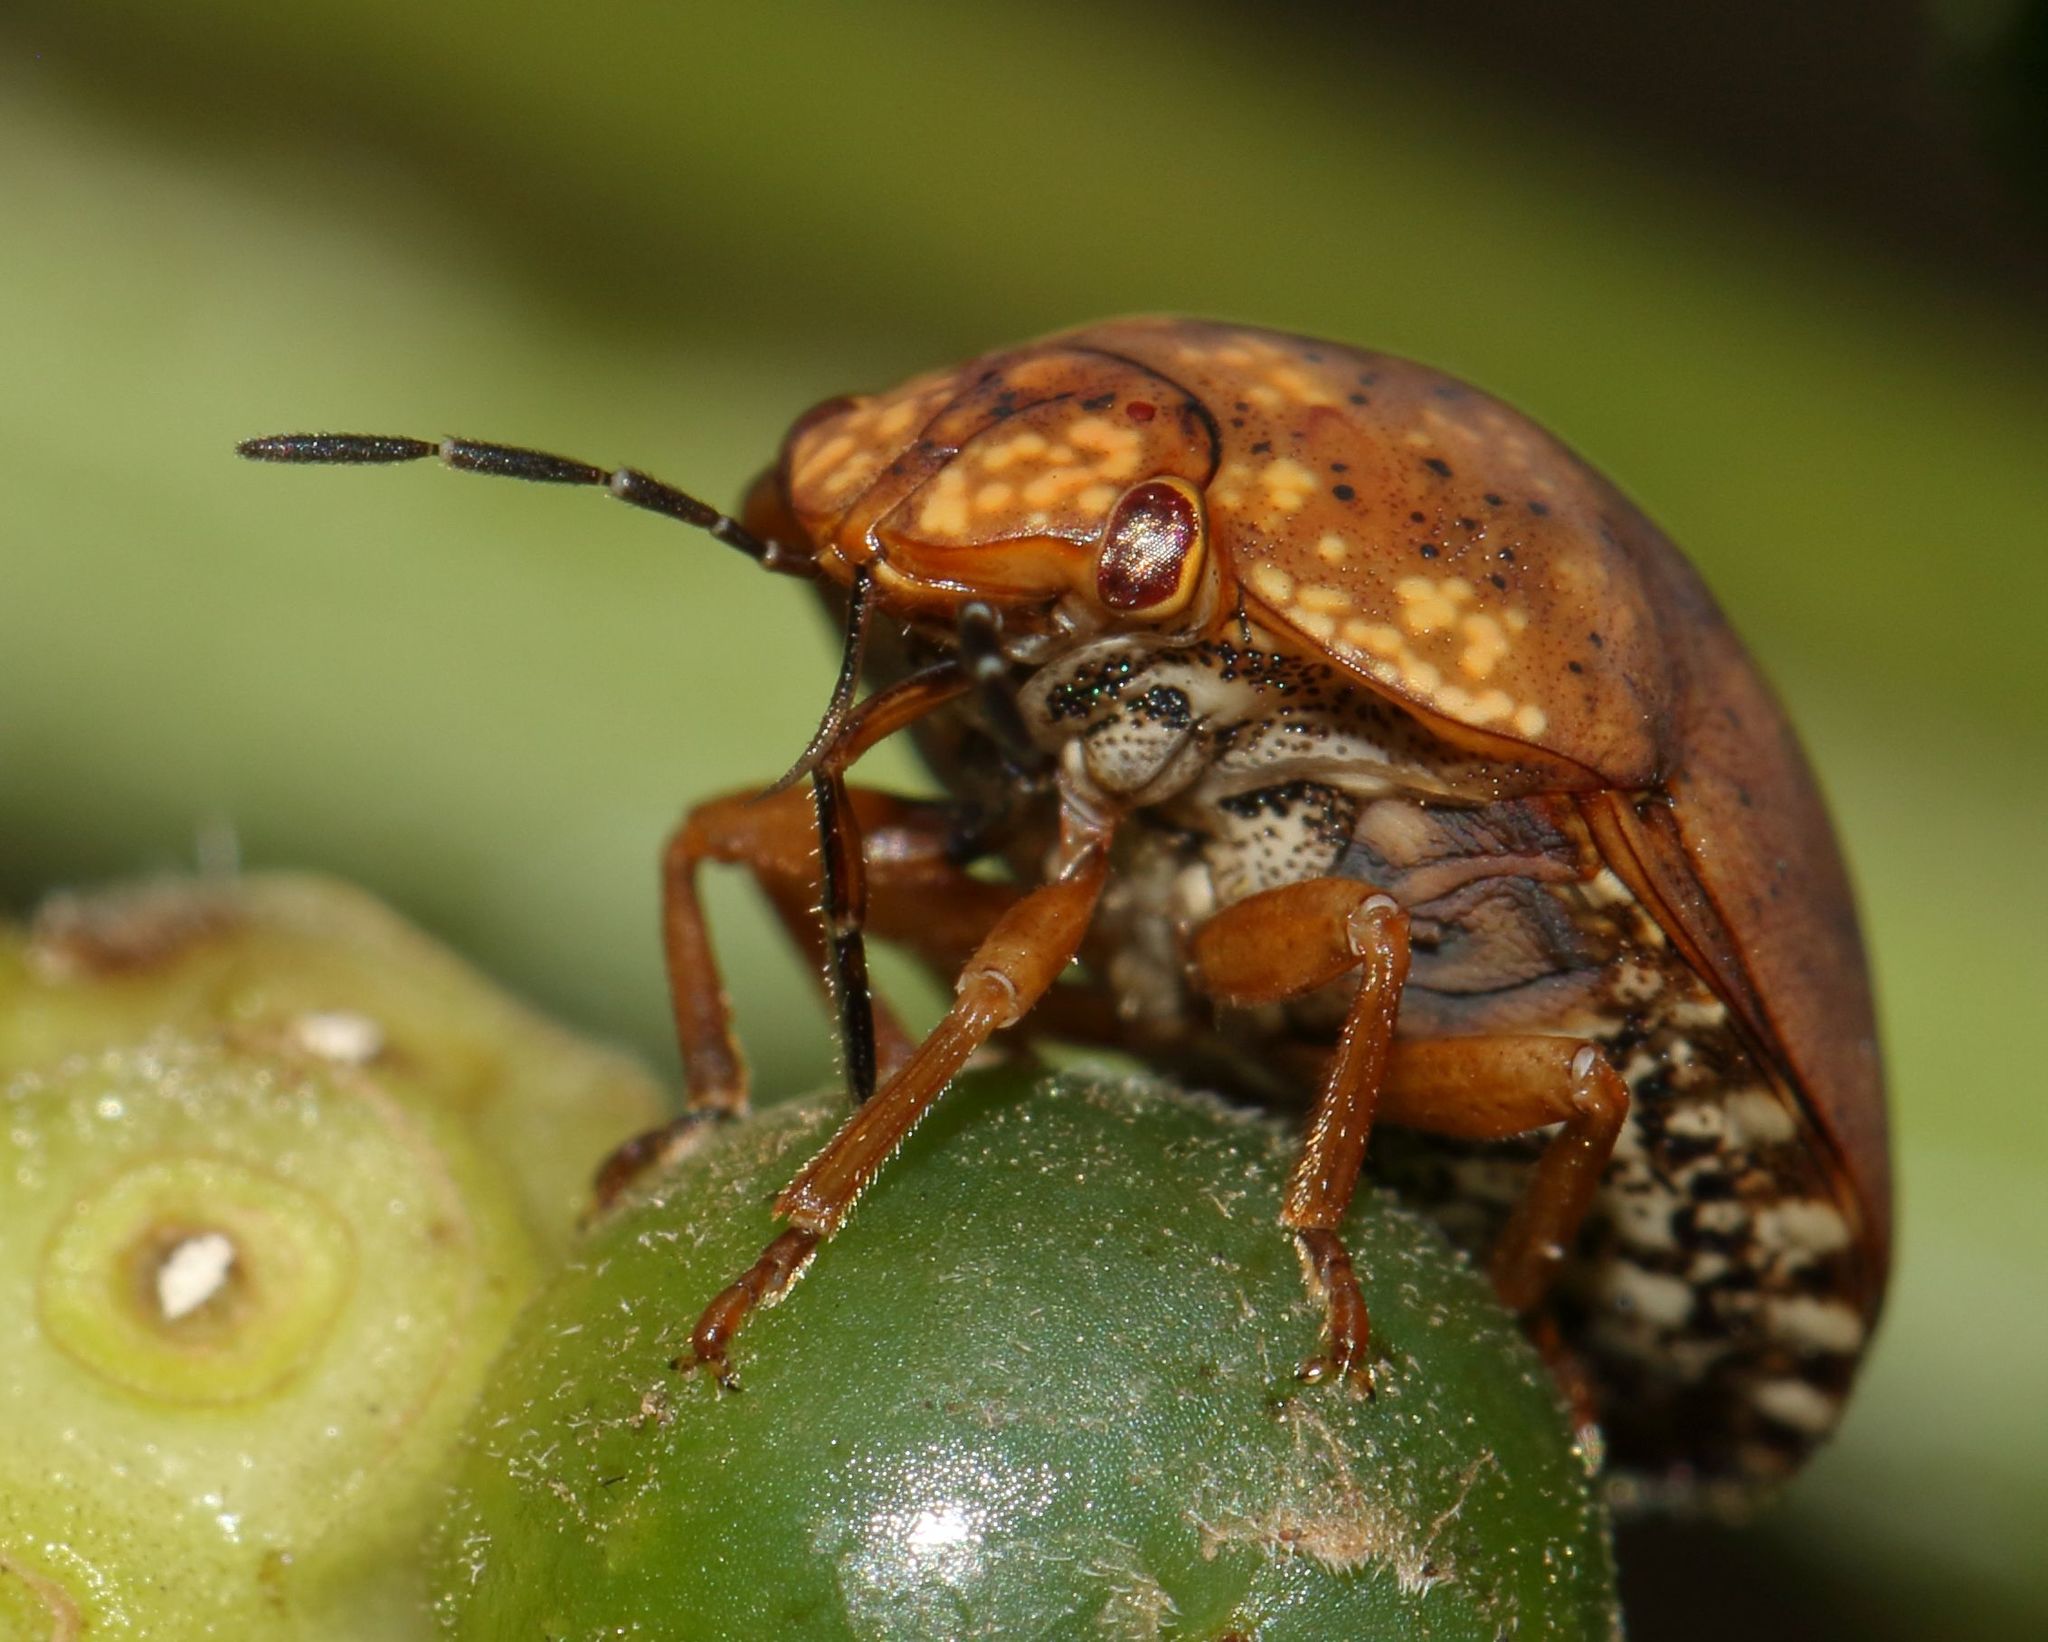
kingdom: Animalia
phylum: Arthropoda
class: Insecta
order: Hemiptera
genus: Steganocerus
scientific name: Steganocerus multipunctatus
